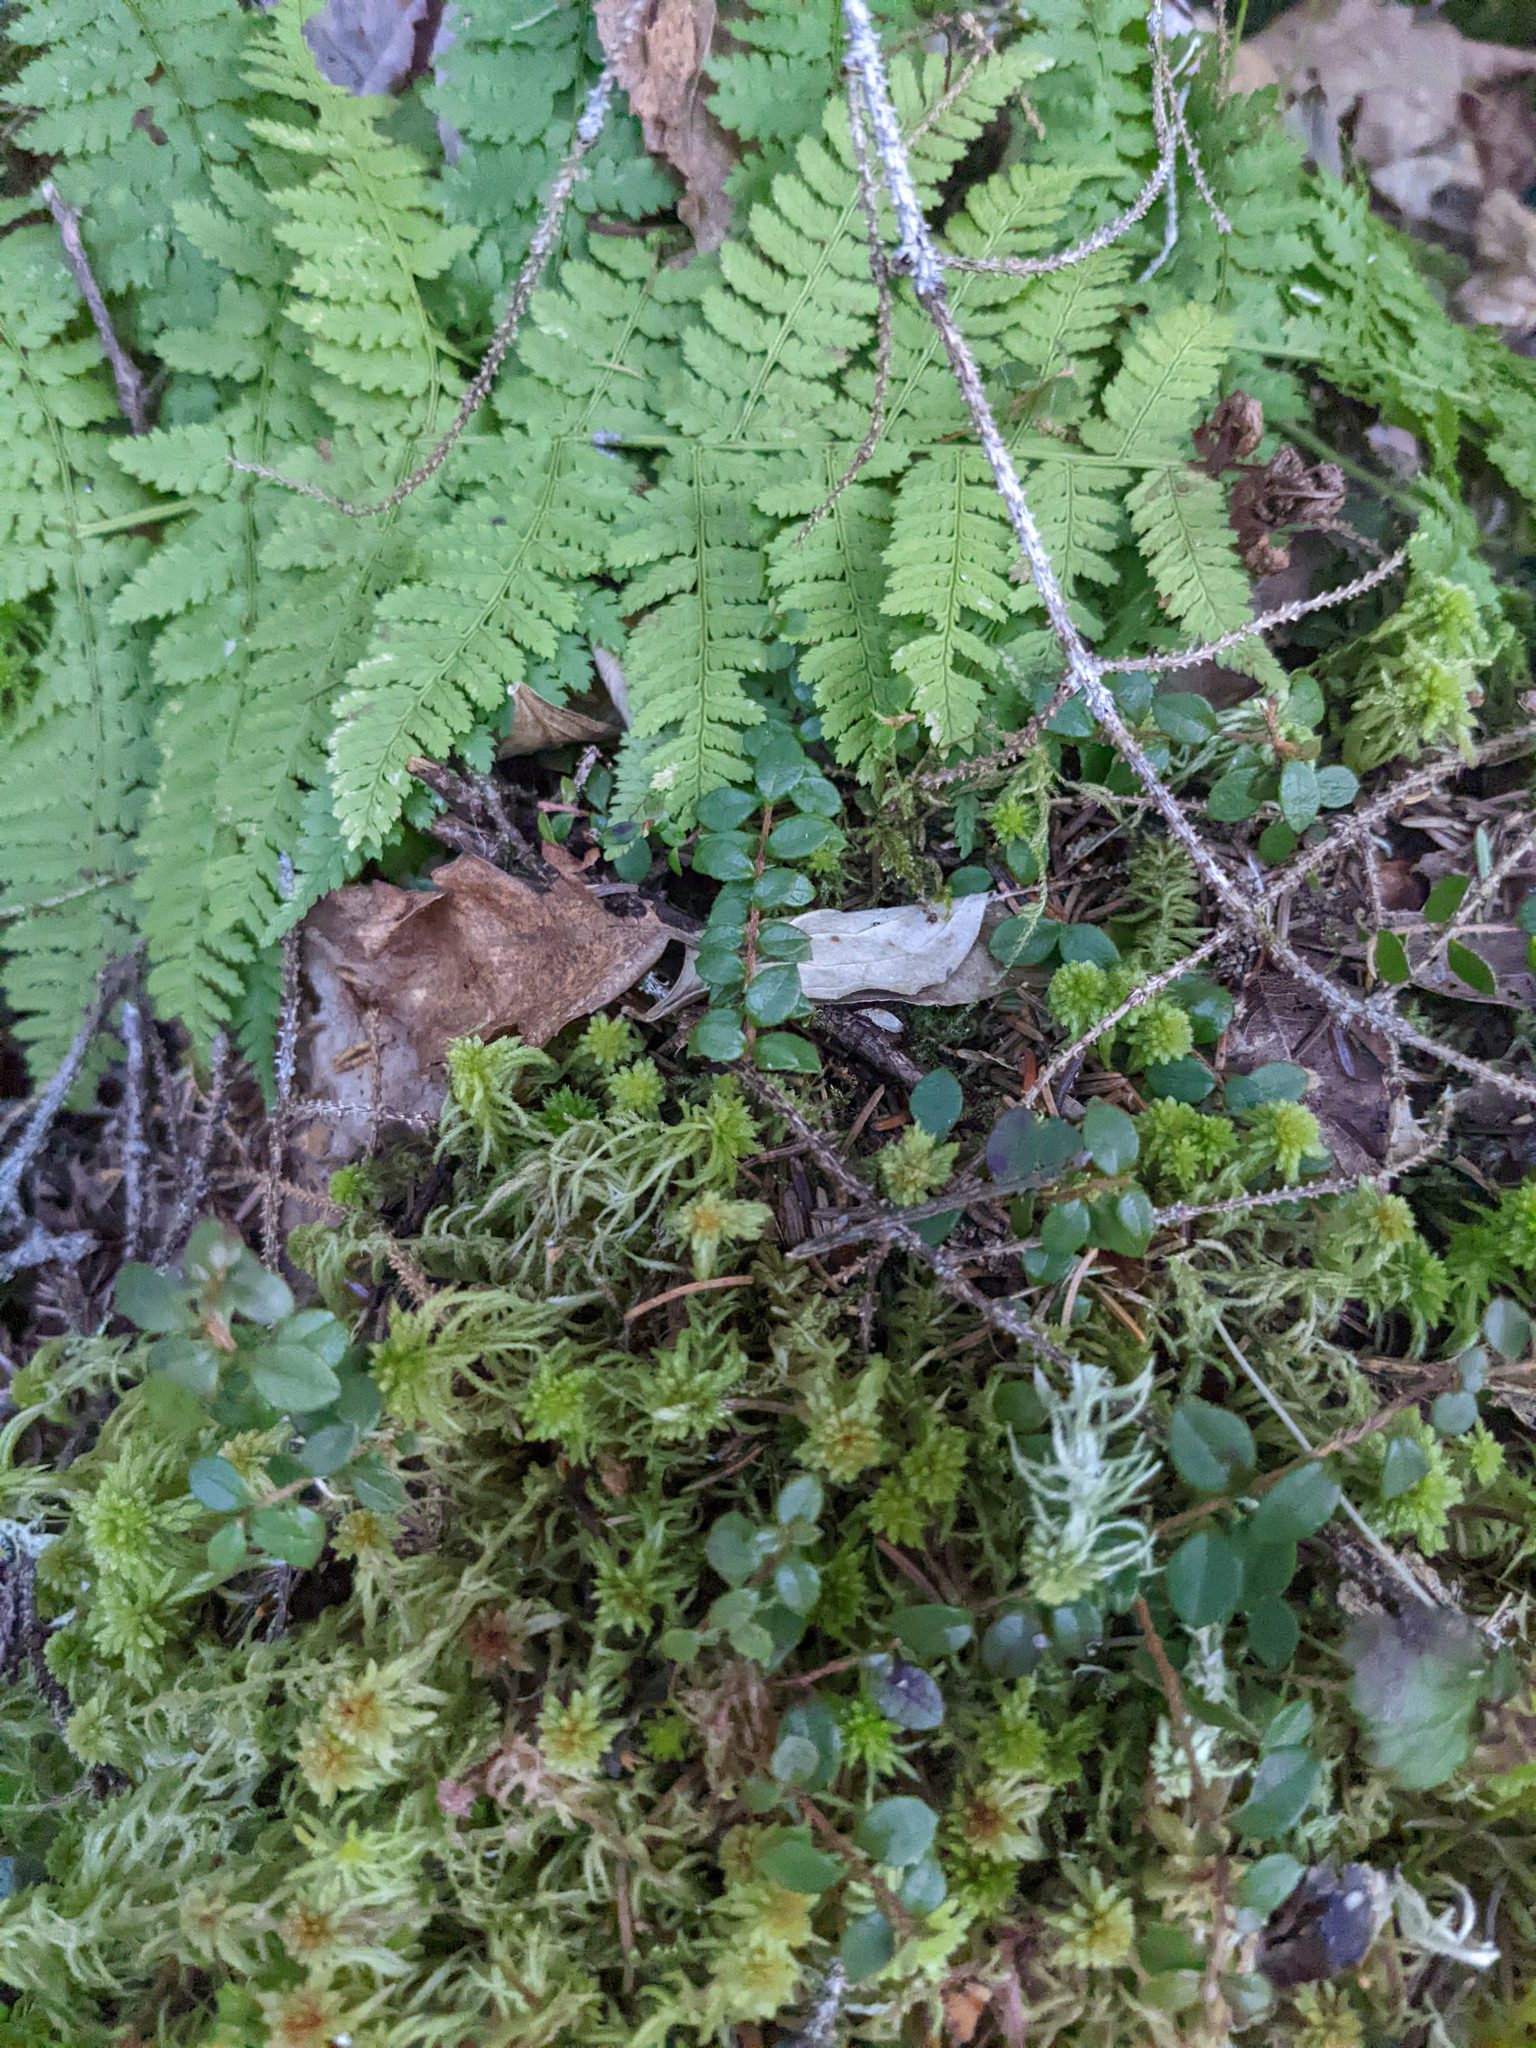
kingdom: Plantae
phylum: Tracheophyta
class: Magnoliopsida
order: Ericales
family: Ericaceae
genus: Gaultheria
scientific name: Gaultheria hispidula
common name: Cancer wintergreen
